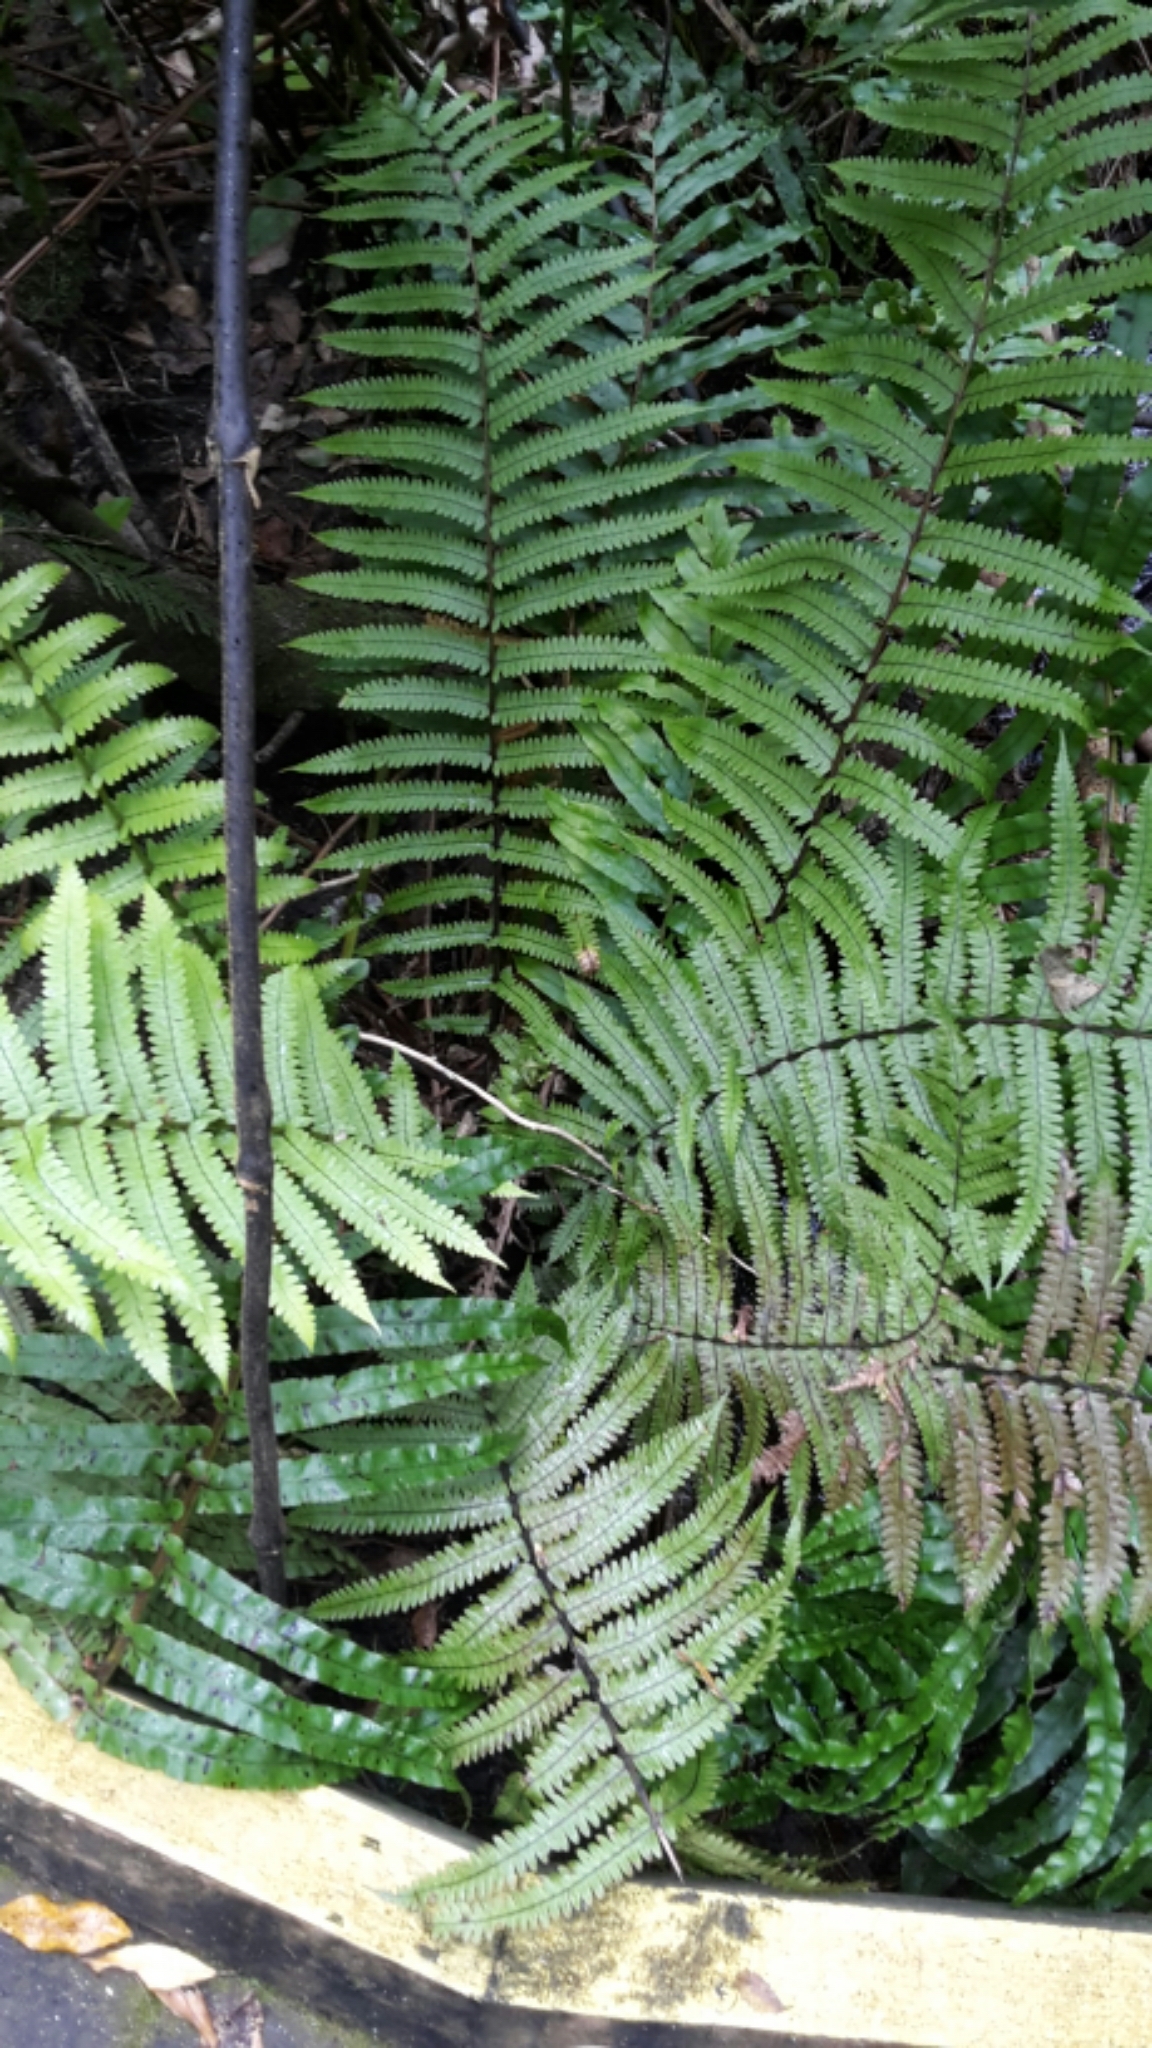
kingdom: Plantae
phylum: Tracheophyta
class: Polypodiopsida
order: Polypodiales
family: Thelypteridaceae
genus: Pakau
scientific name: Pakau pennigera
